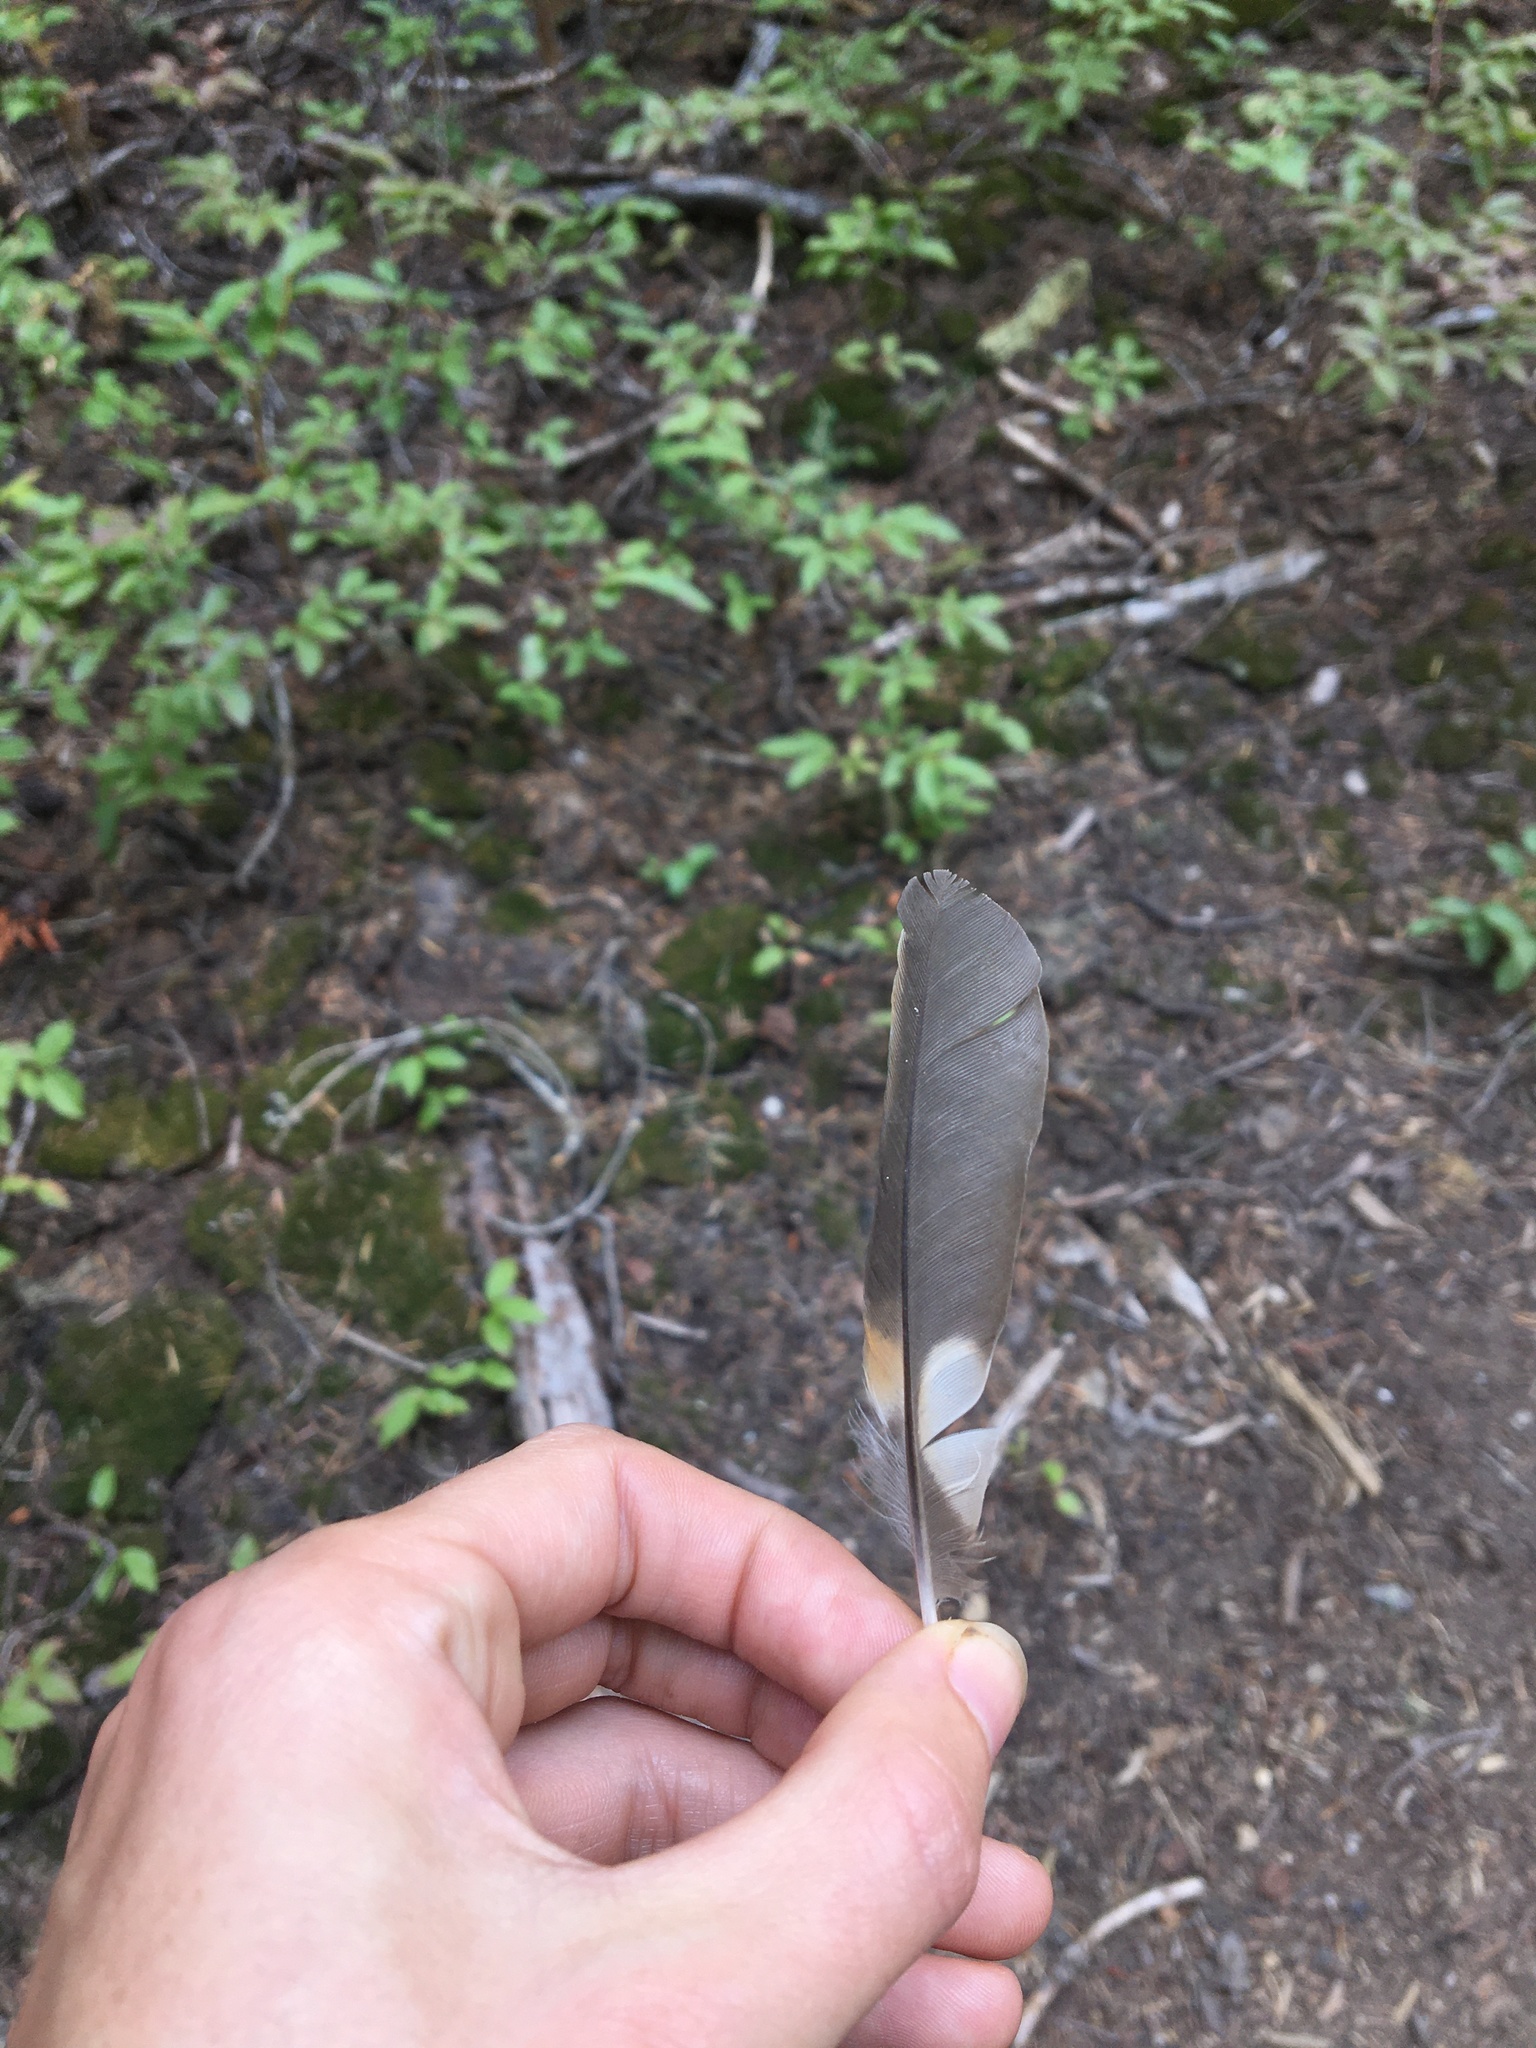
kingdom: Animalia
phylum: Chordata
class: Aves
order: Passeriformes
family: Turdidae
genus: Ixoreus
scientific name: Ixoreus naevius
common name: Varied thrush
